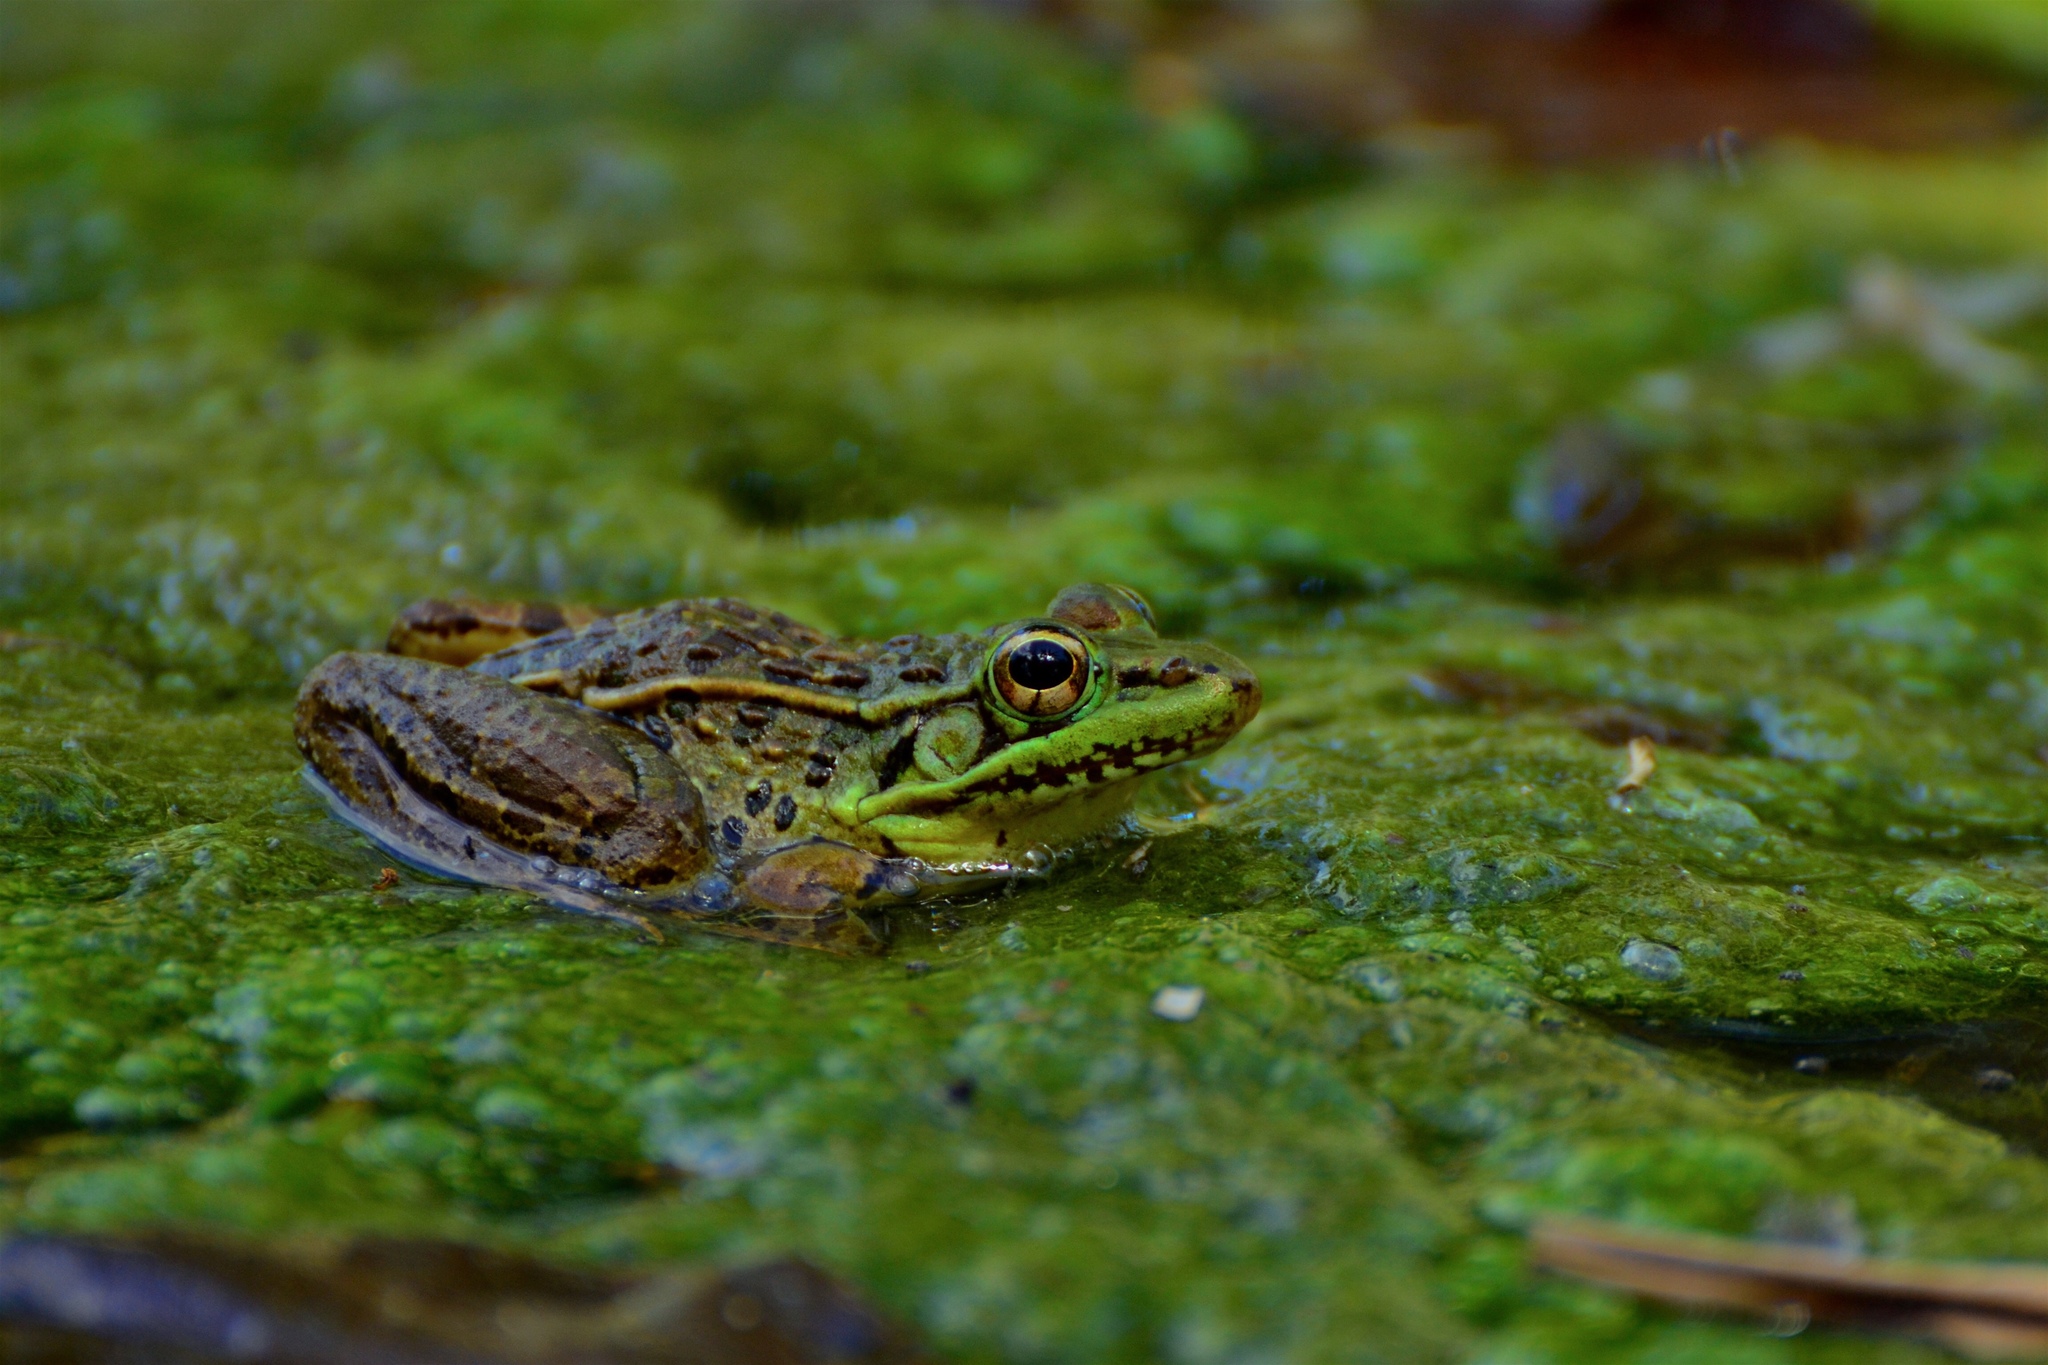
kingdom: Animalia
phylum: Chordata
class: Amphibia
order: Anura
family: Ranidae
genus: Lithobates
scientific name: Lithobates brownorum
